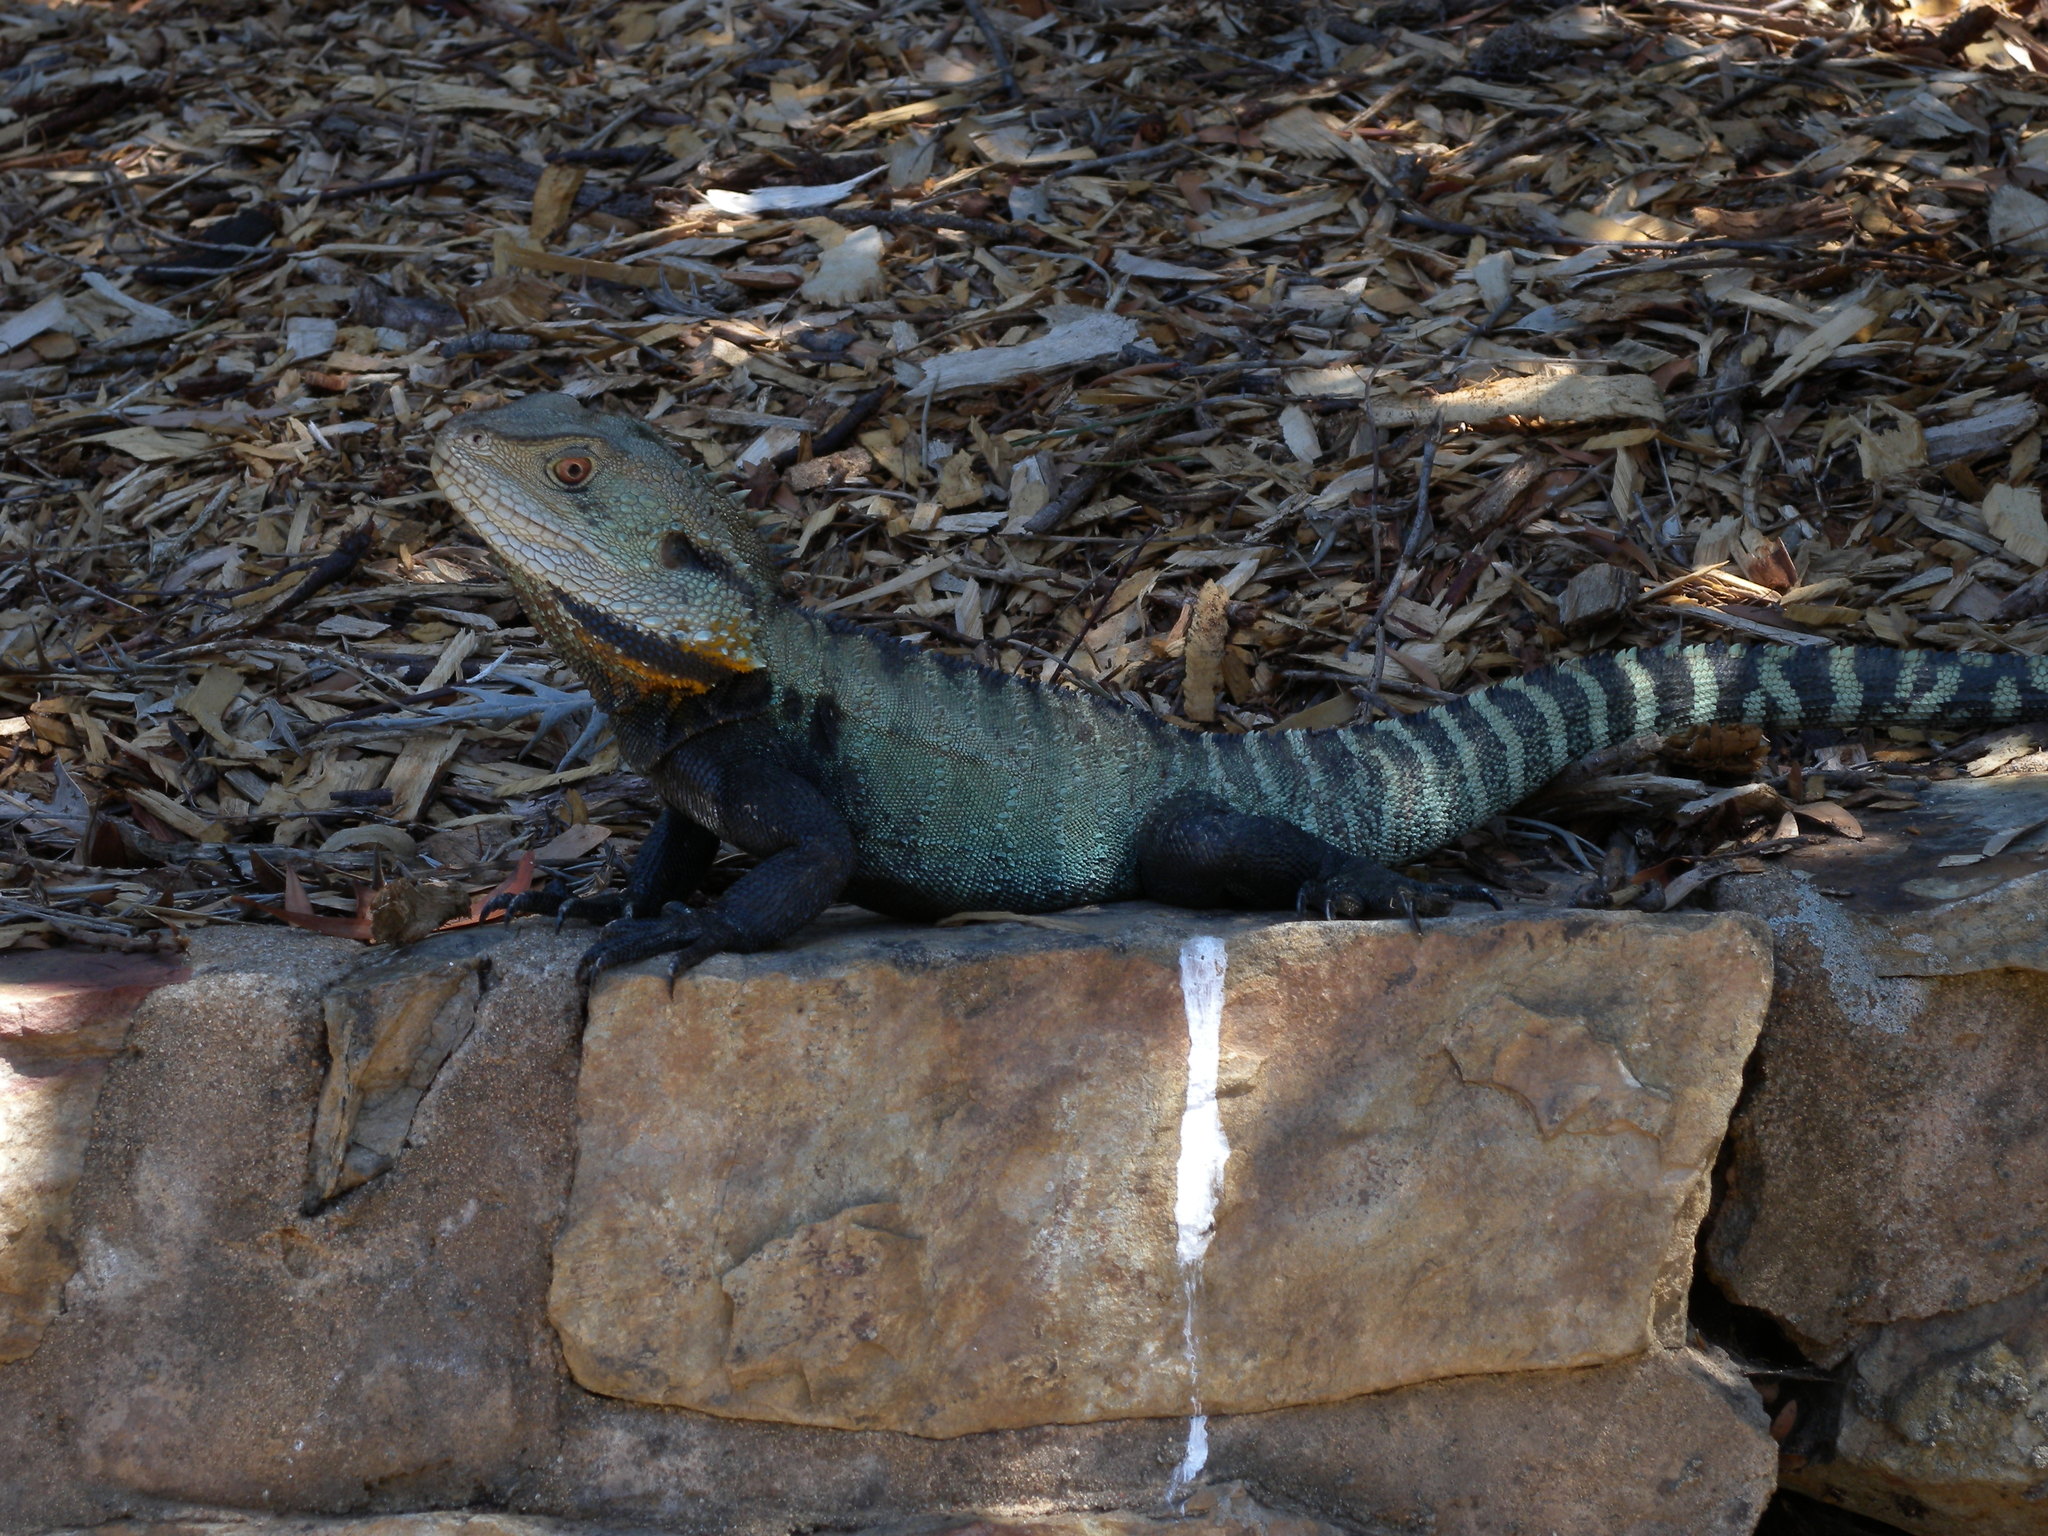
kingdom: Animalia
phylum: Chordata
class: Squamata
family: Agamidae
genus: Intellagama
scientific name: Intellagama lesueurii
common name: Eastern water dragon
